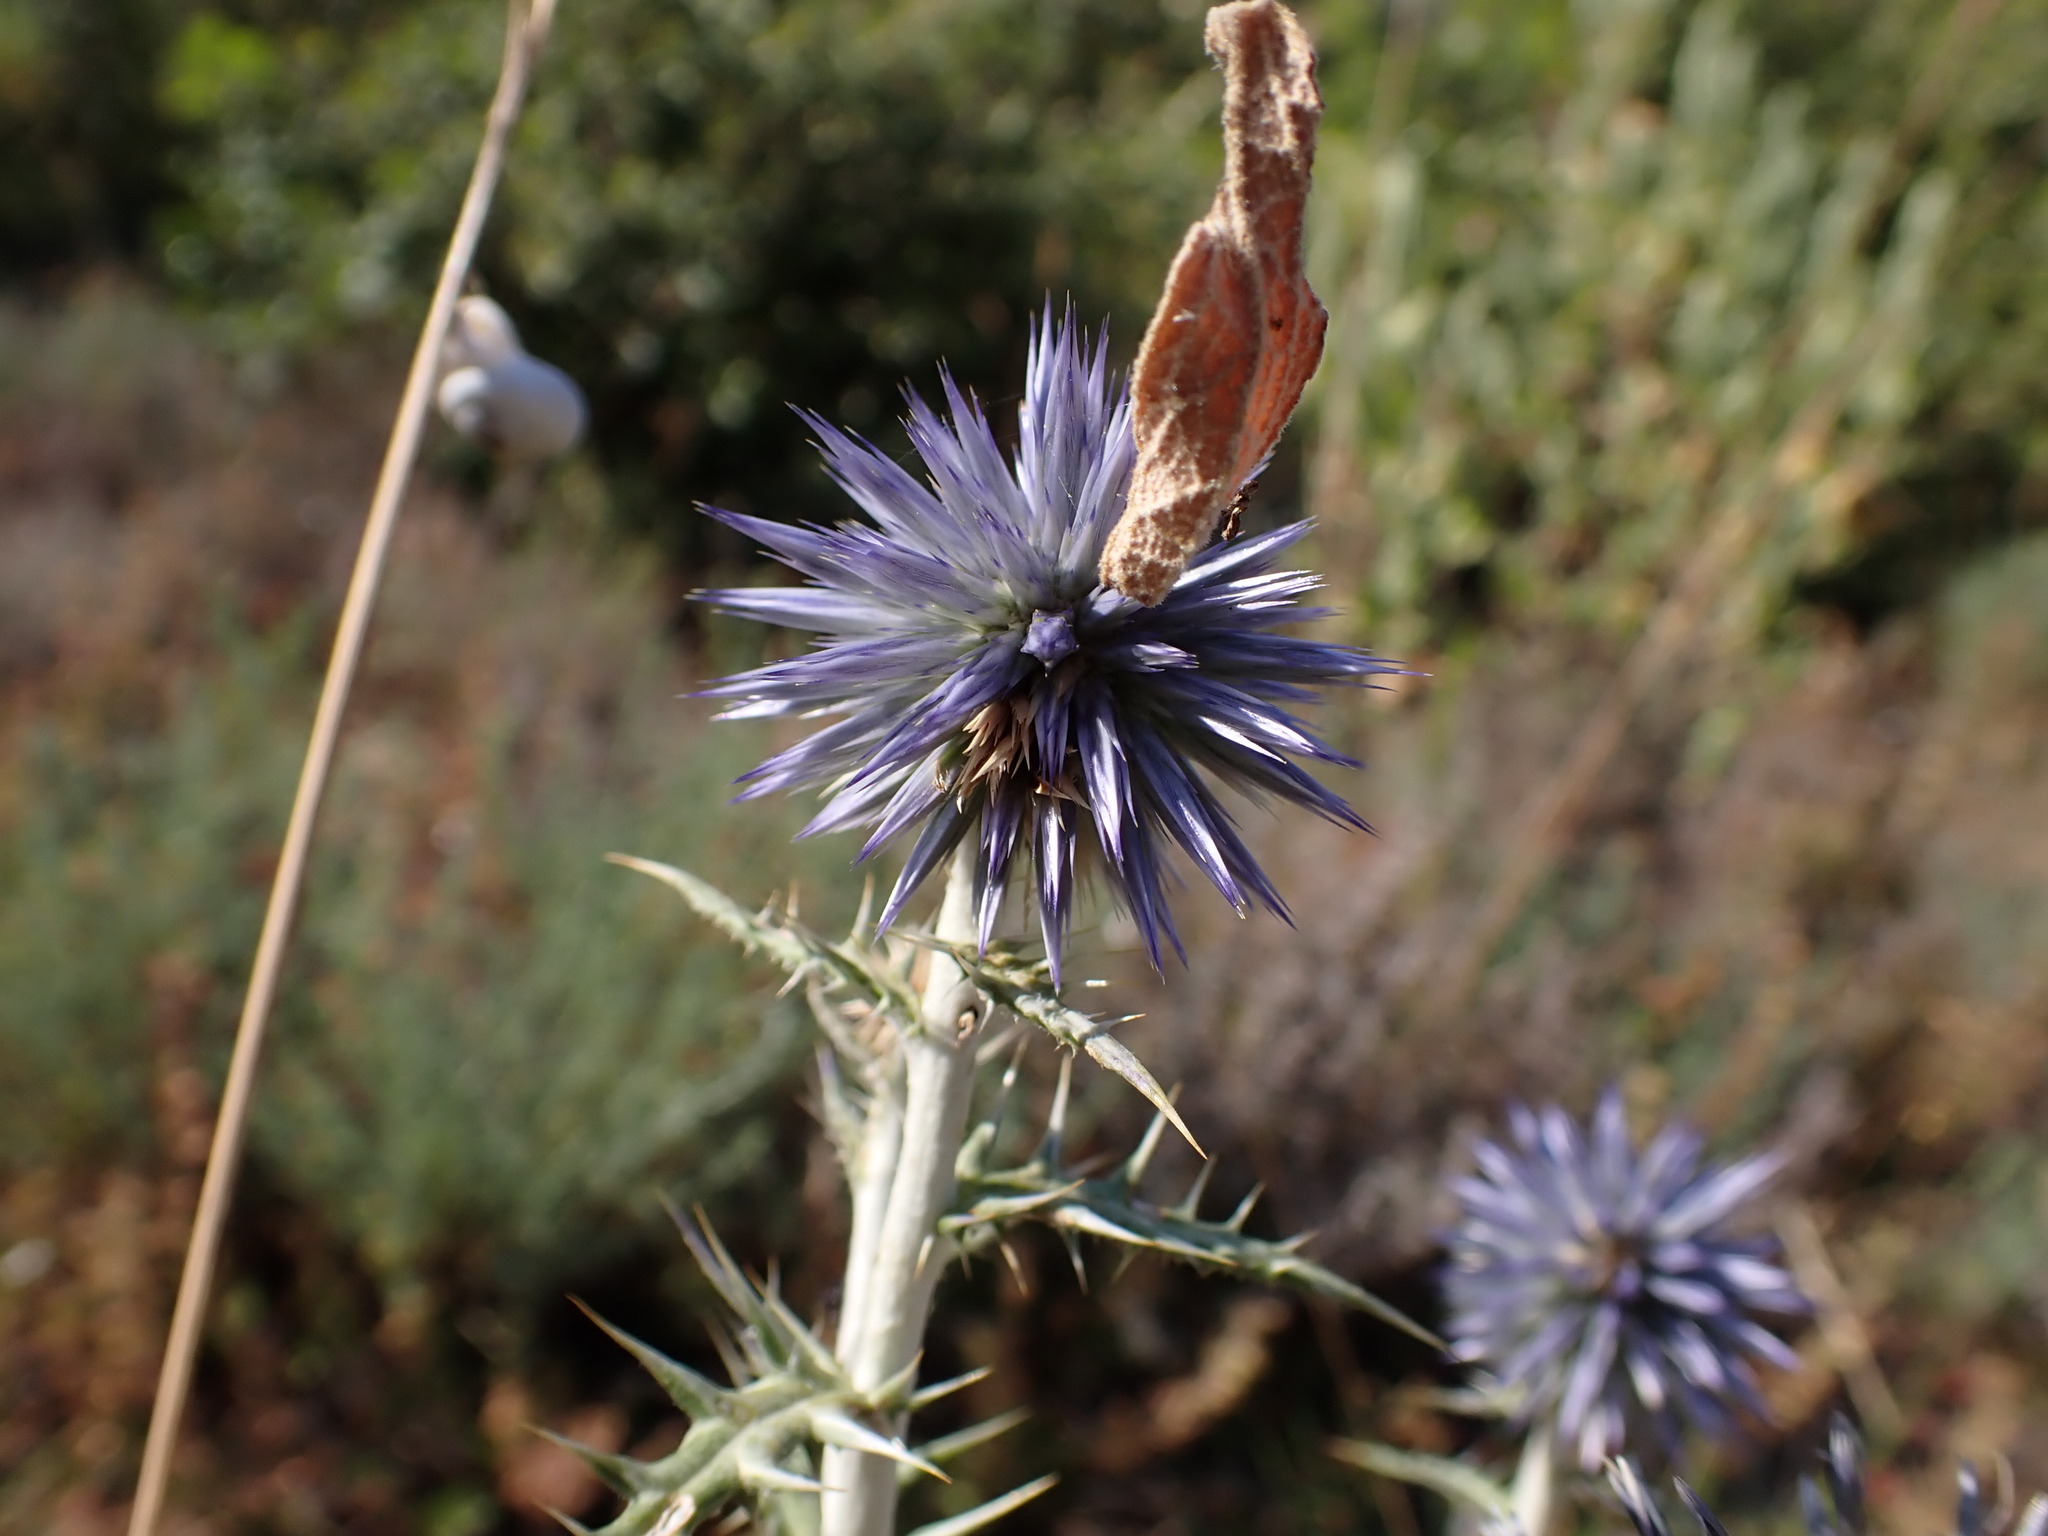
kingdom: Plantae
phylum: Tracheophyta
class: Magnoliopsida
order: Asterales
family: Asteraceae
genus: Echinops
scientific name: Echinops ritro
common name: Globe thistle
